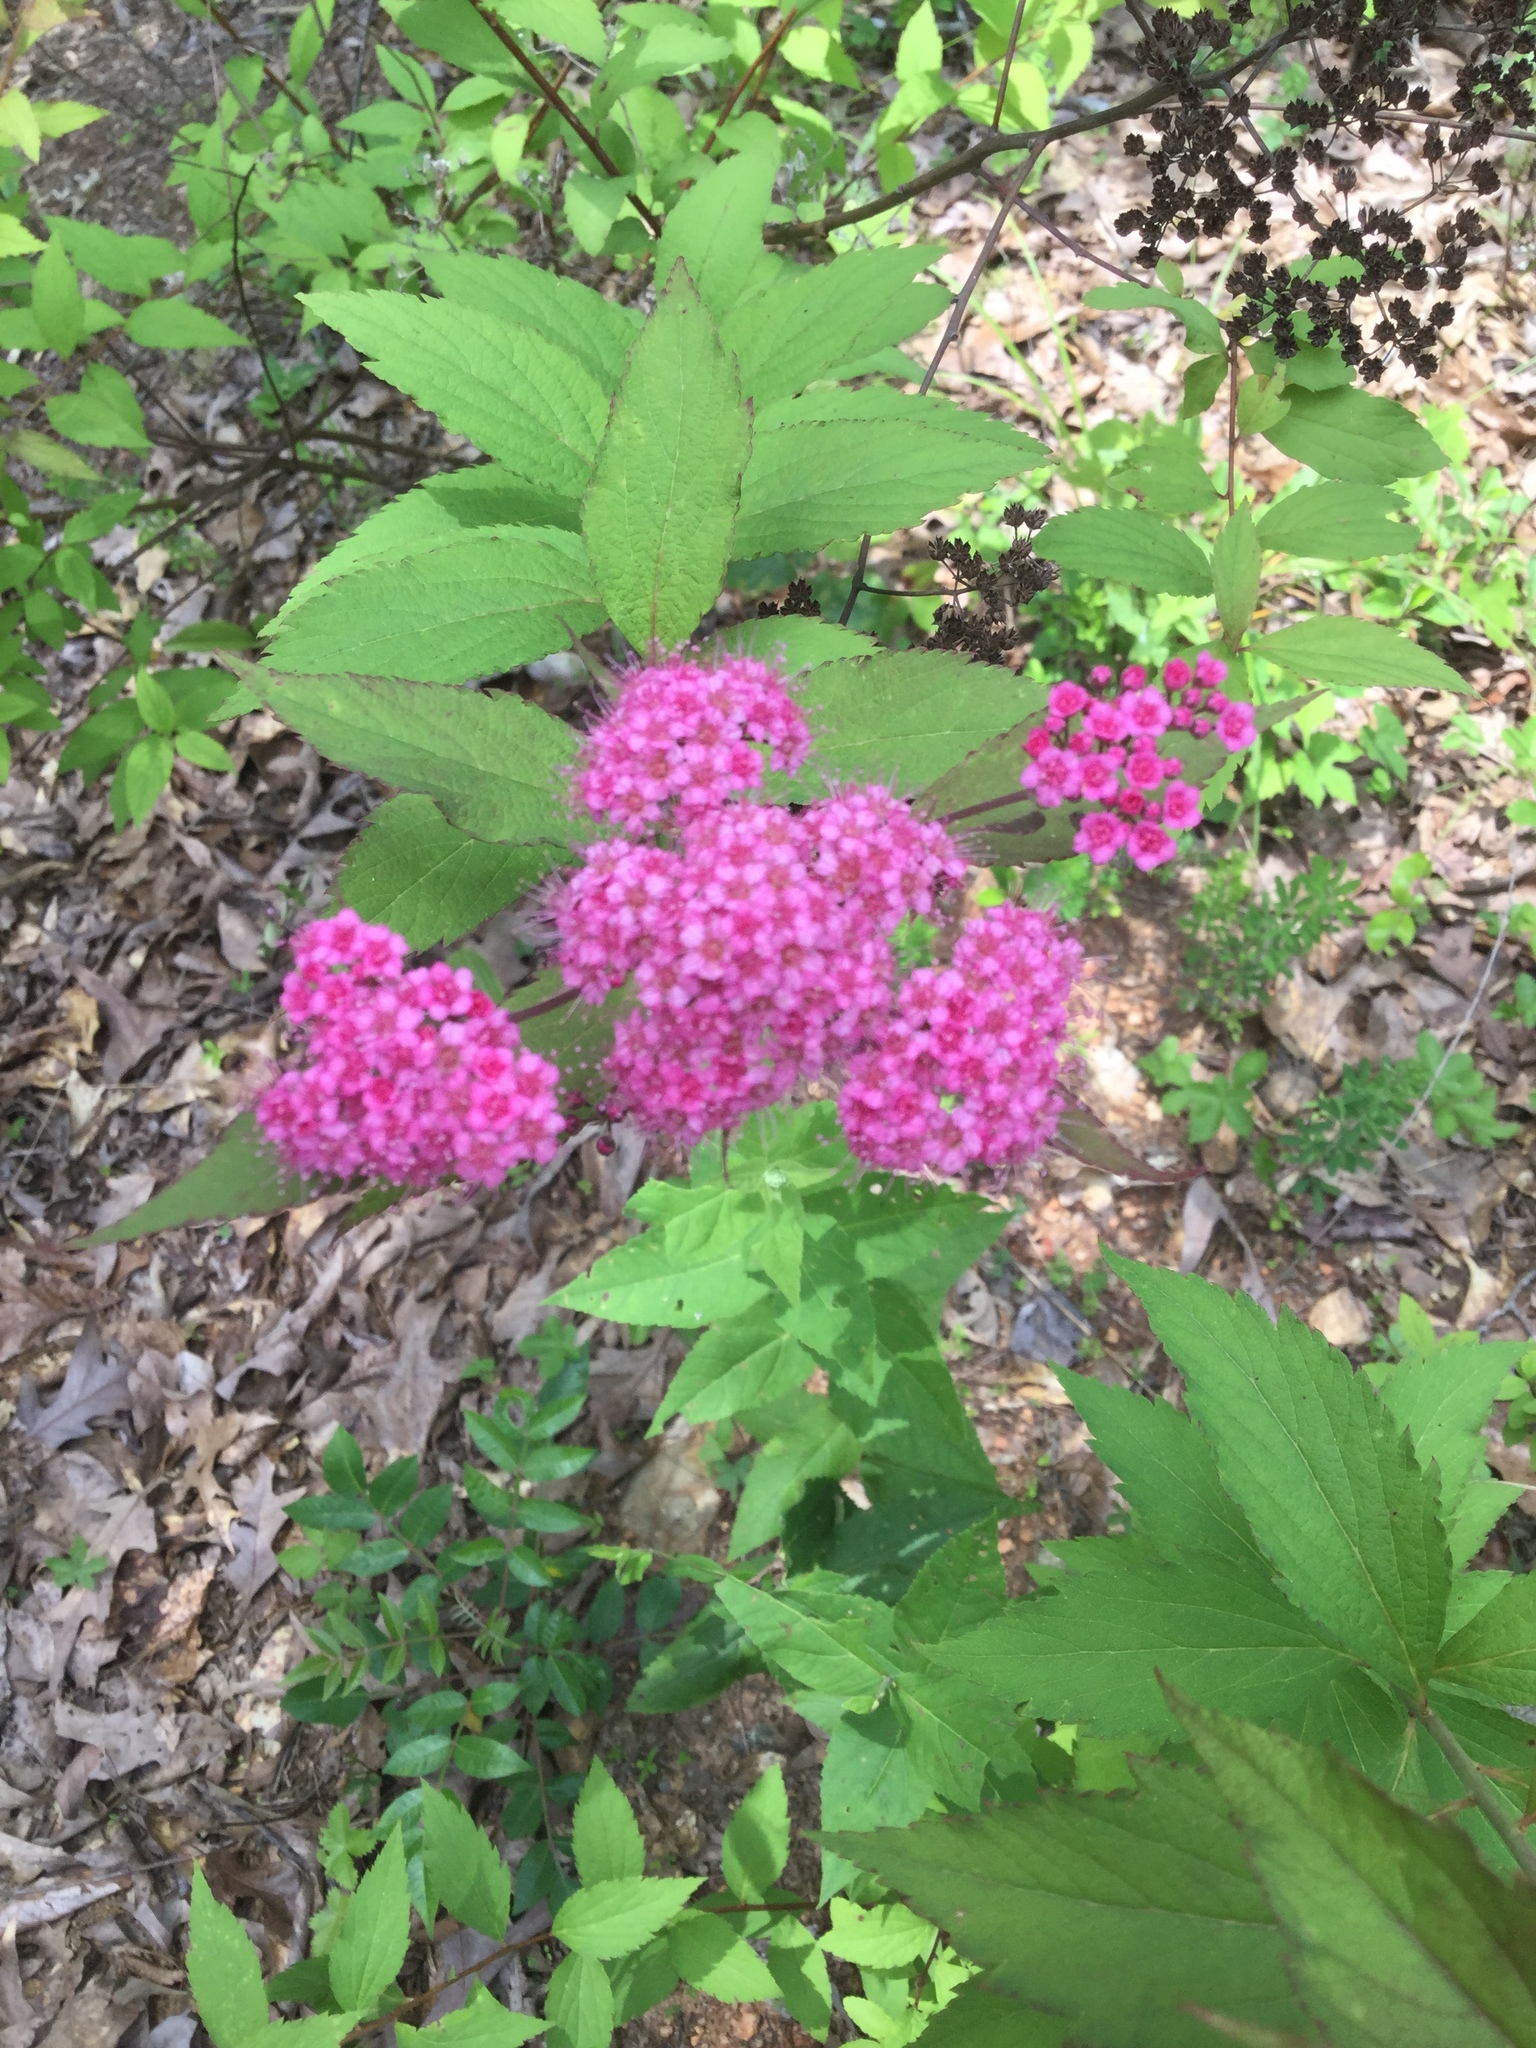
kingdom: Plantae
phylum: Tracheophyta
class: Magnoliopsida
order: Rosales
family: Rosaceae
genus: Spiraea
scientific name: Spiraea japonica
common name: Japanese spiraea
